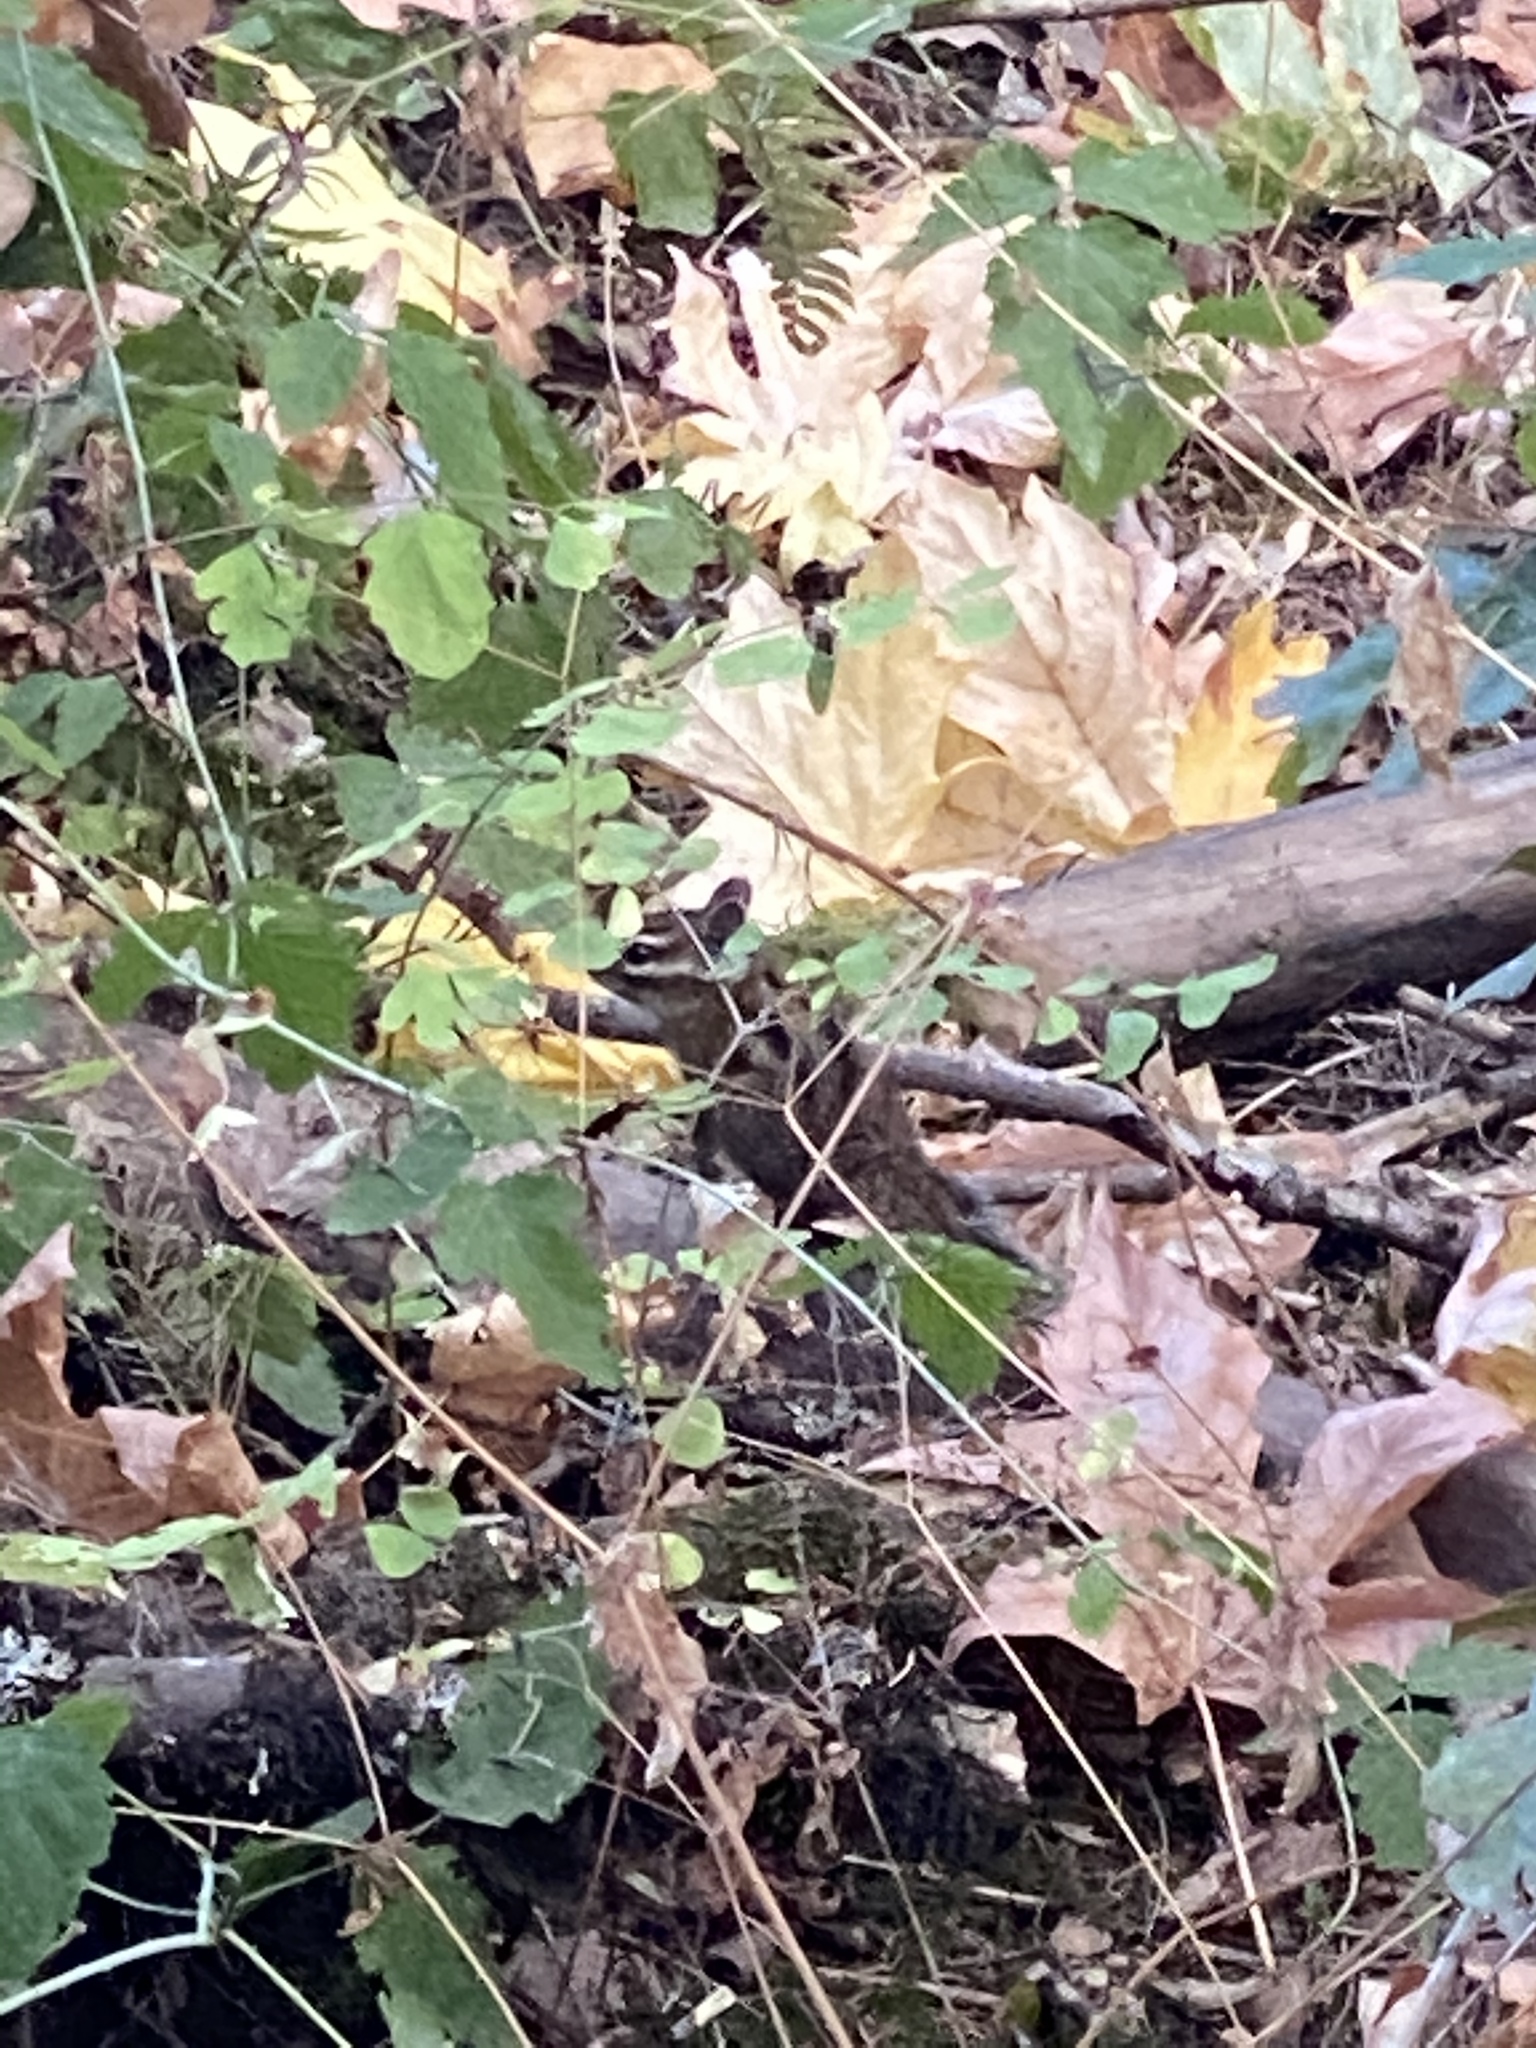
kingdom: Animalia
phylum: Chordata
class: Mammalia
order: Rodentia
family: Sciuridae
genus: Tamias
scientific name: Tamias townsendii
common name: Townsend's chipmunk
